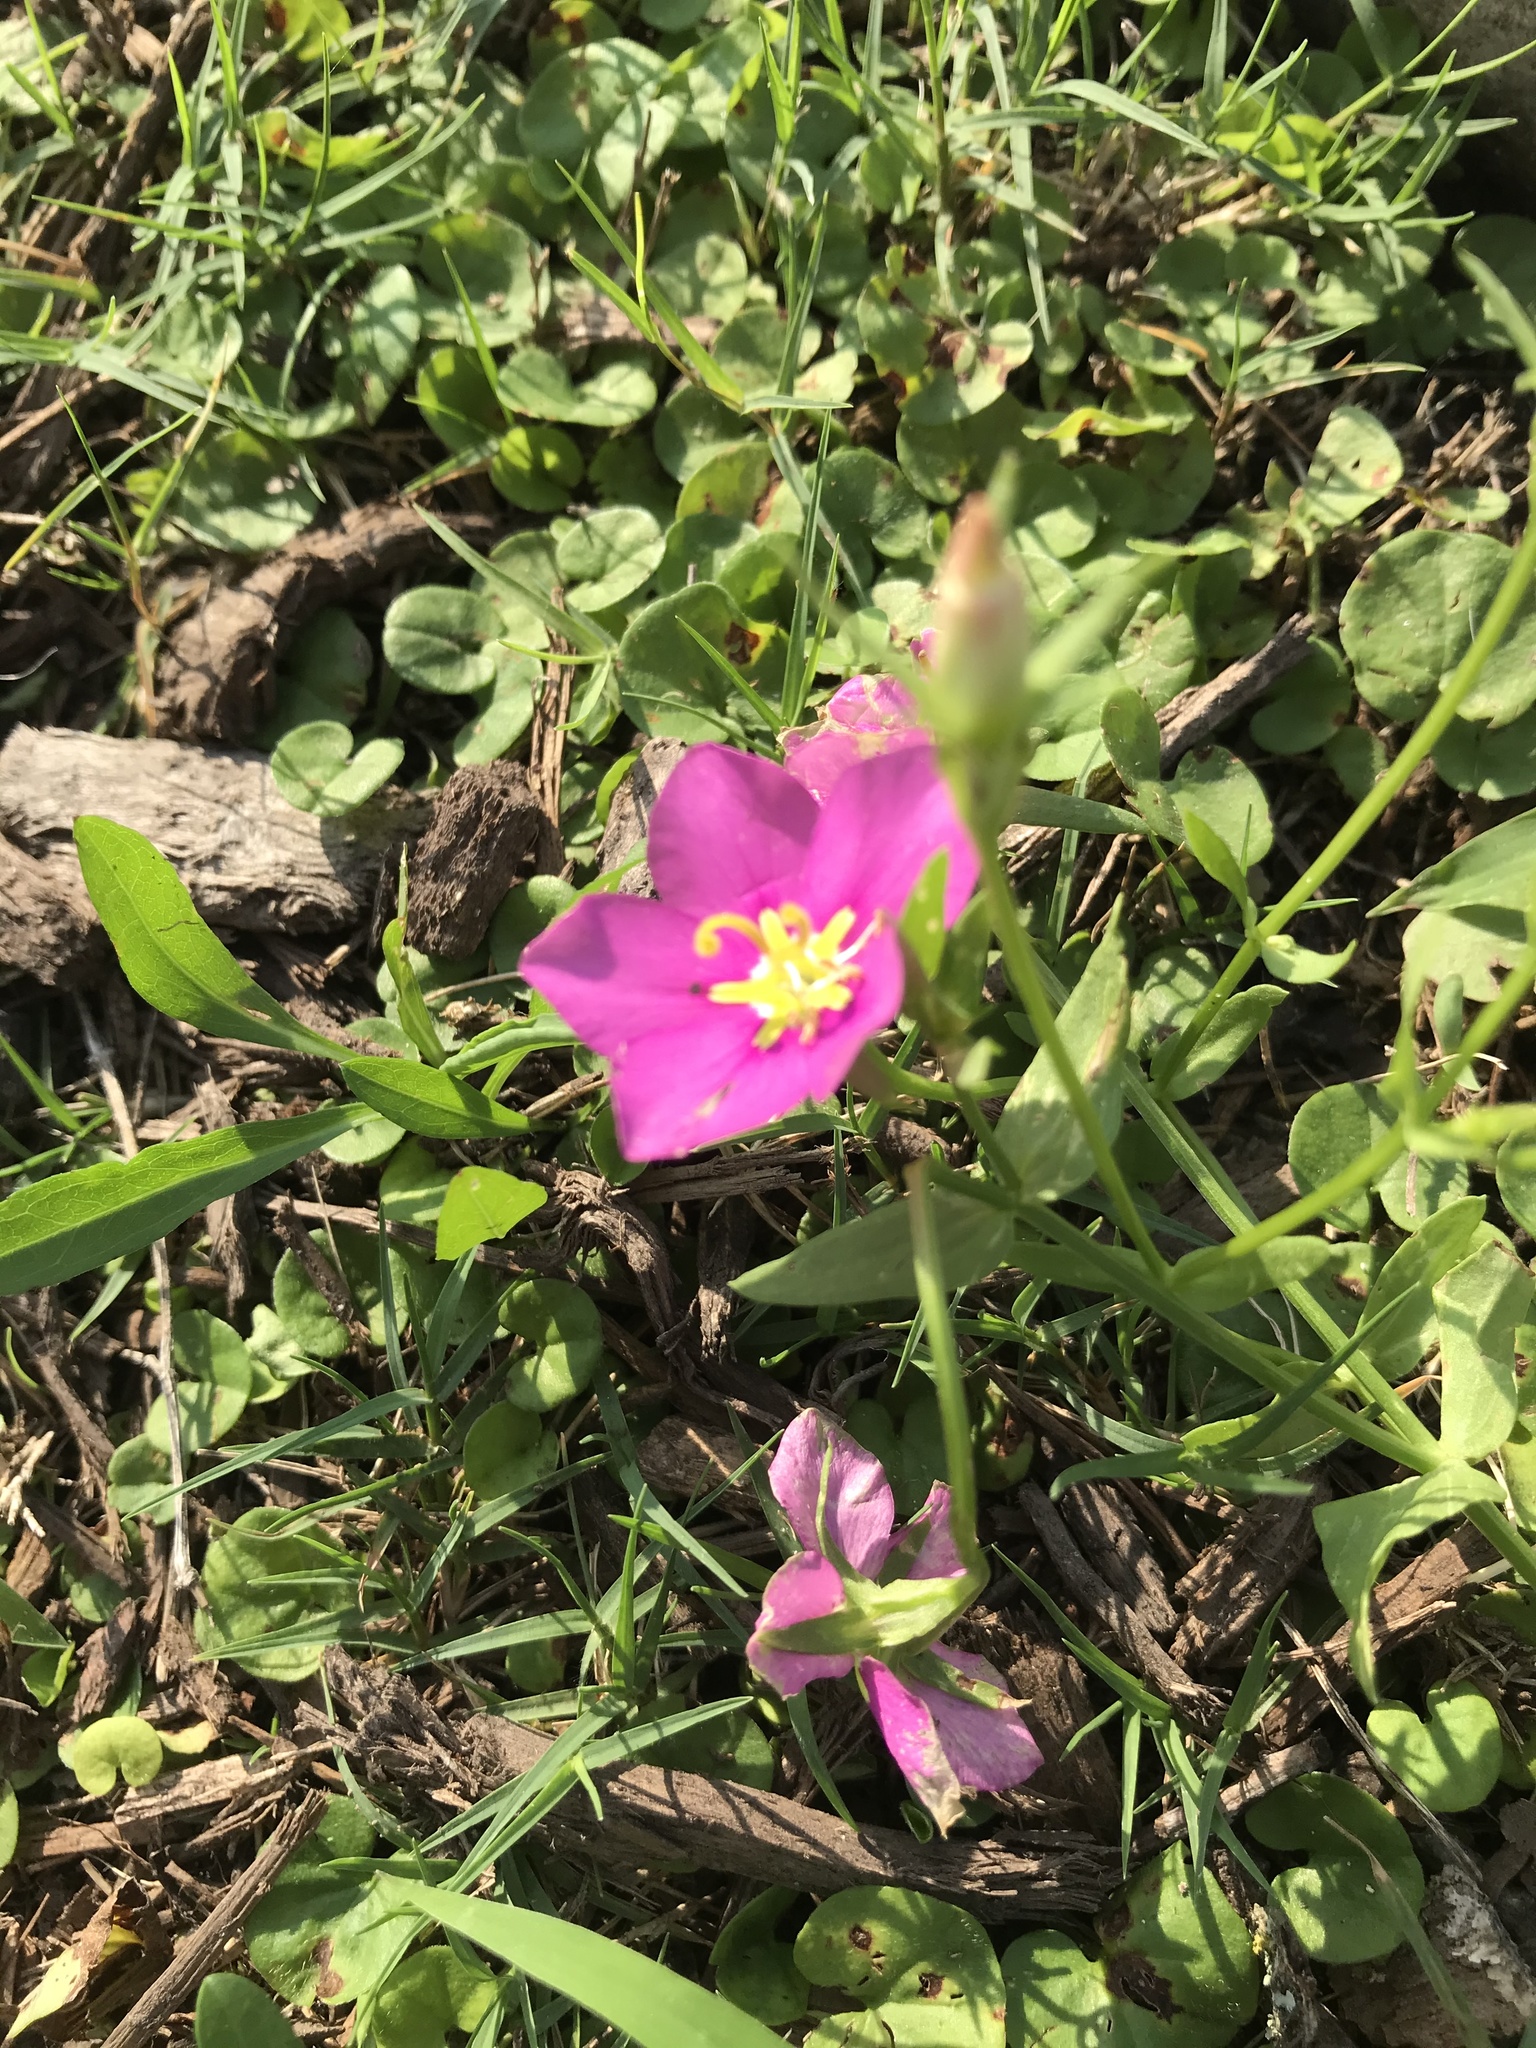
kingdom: Plantae
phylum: Tracheophyta
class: Magnoliopsida
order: Gentianales
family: Gentianaceae
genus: Sabatia
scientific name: Sabatia campestris
